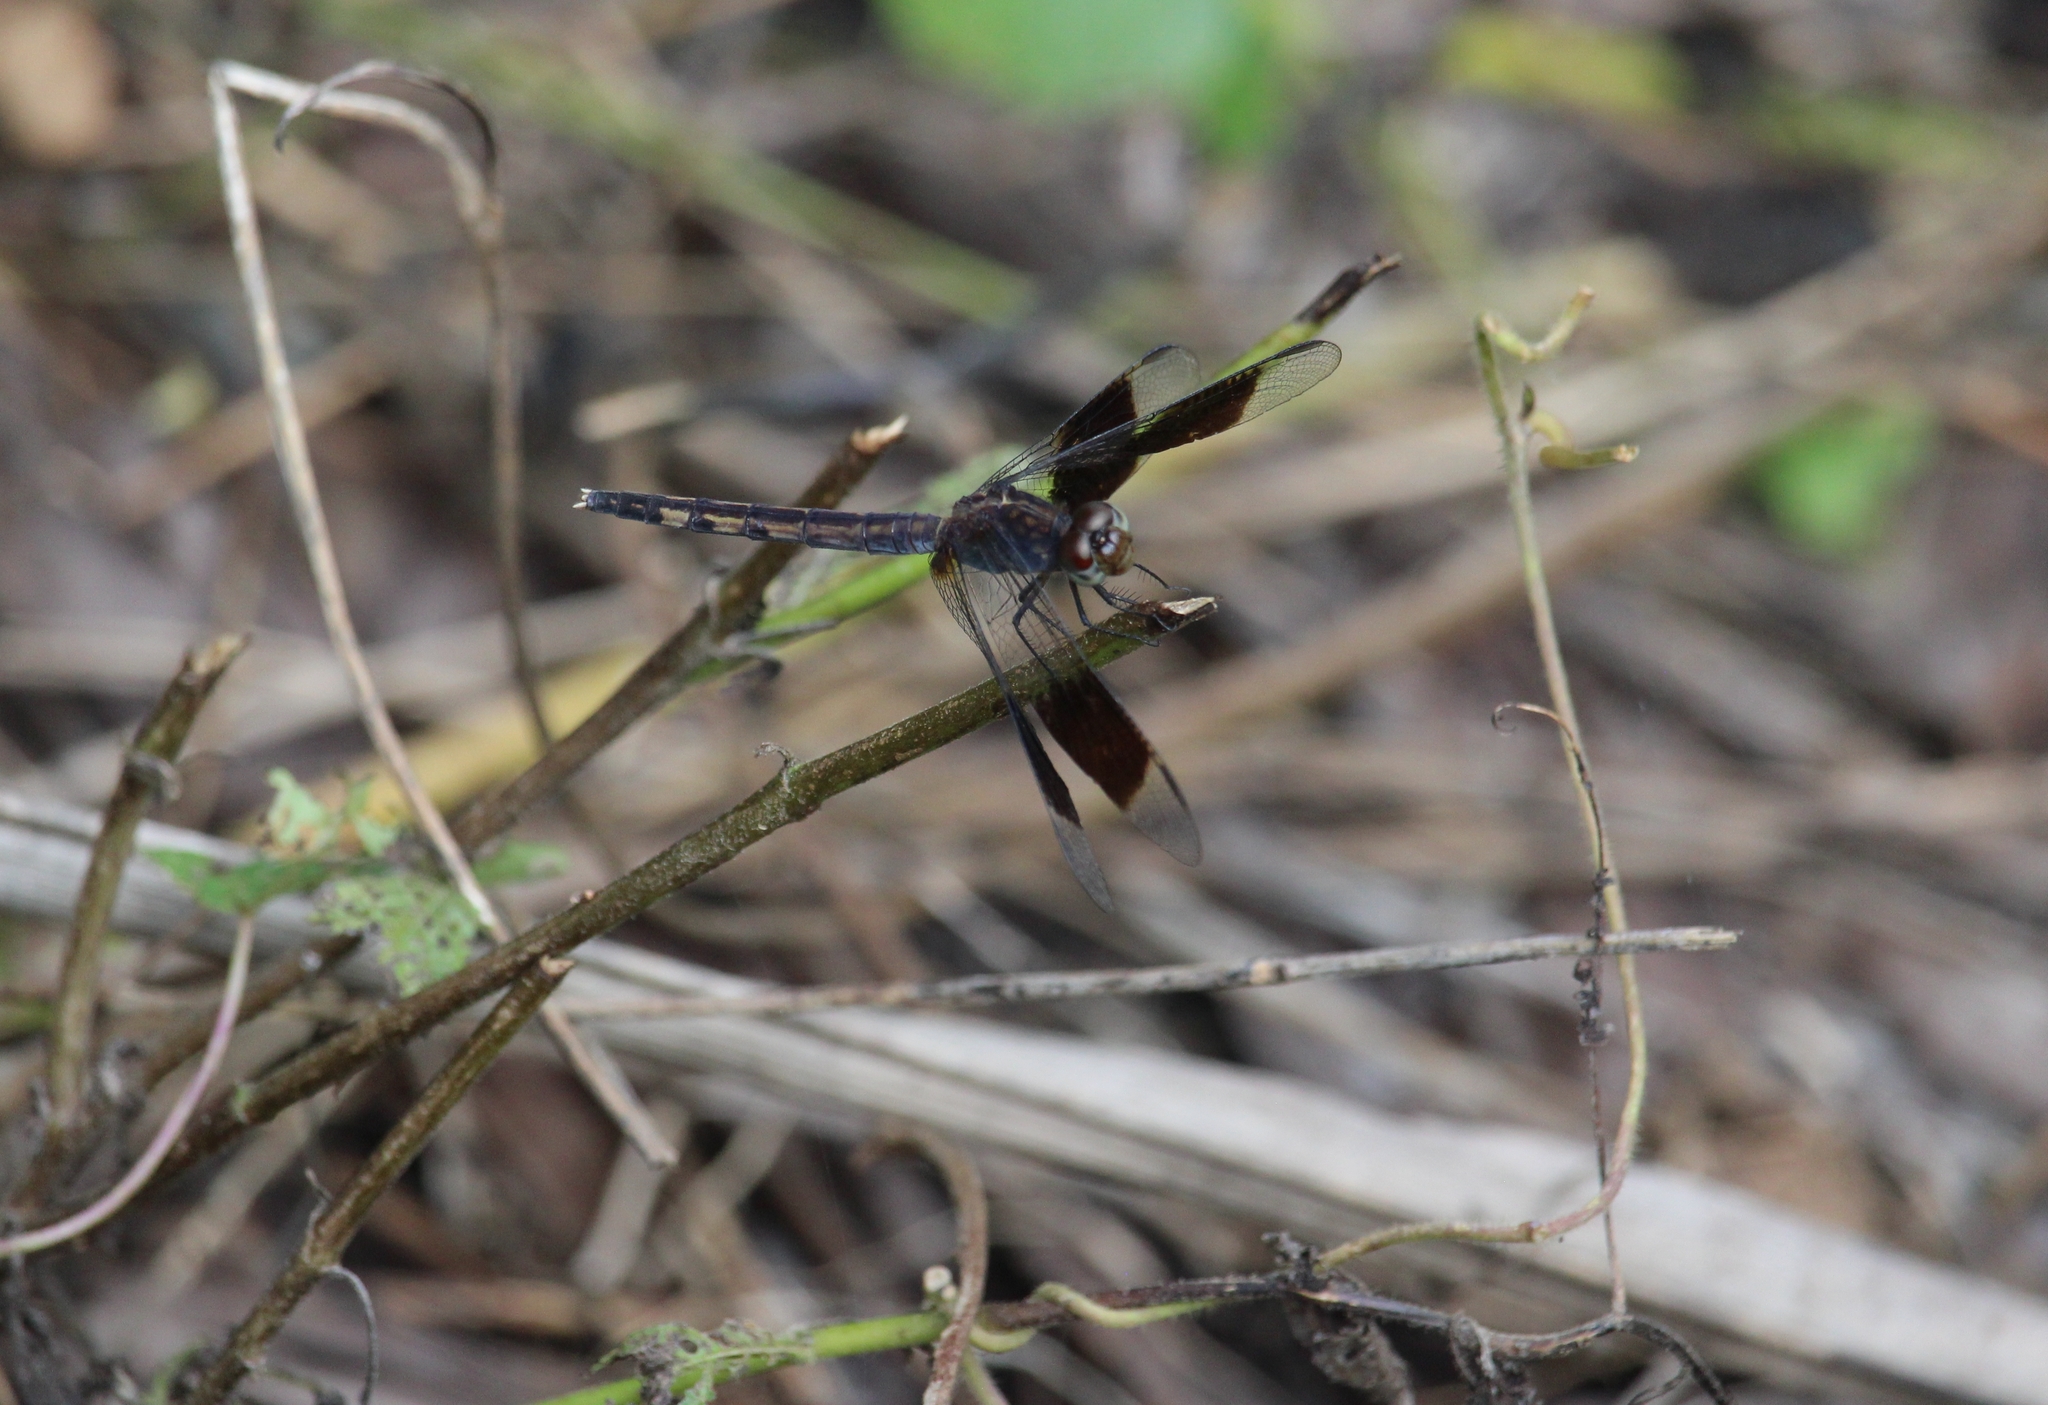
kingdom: Animalia
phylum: Arthropoda
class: Insecta
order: Odonata
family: Libellulidae
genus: Erythrodiplax
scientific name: Erythrodiplax umbrata
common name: Band-winged dragonlet
